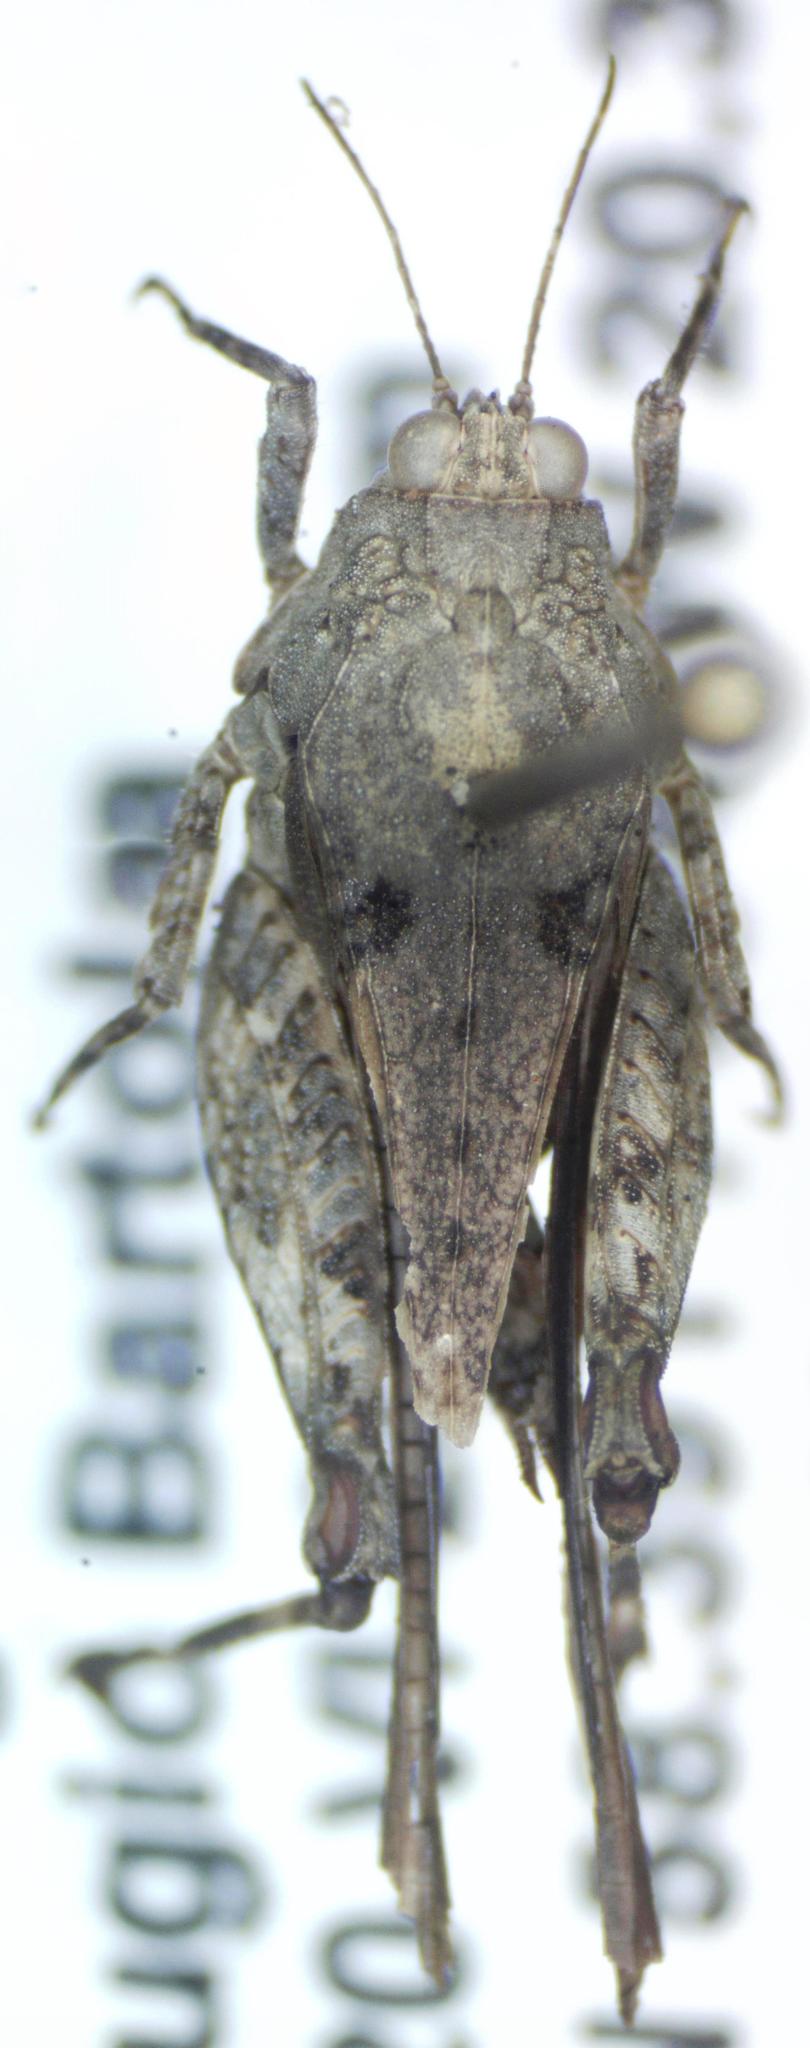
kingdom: Animalia
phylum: Arthropoda
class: Insecta
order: Orthoptera
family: Tetrigidae
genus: Paratettix
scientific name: Paratettix frey-gessnerii
